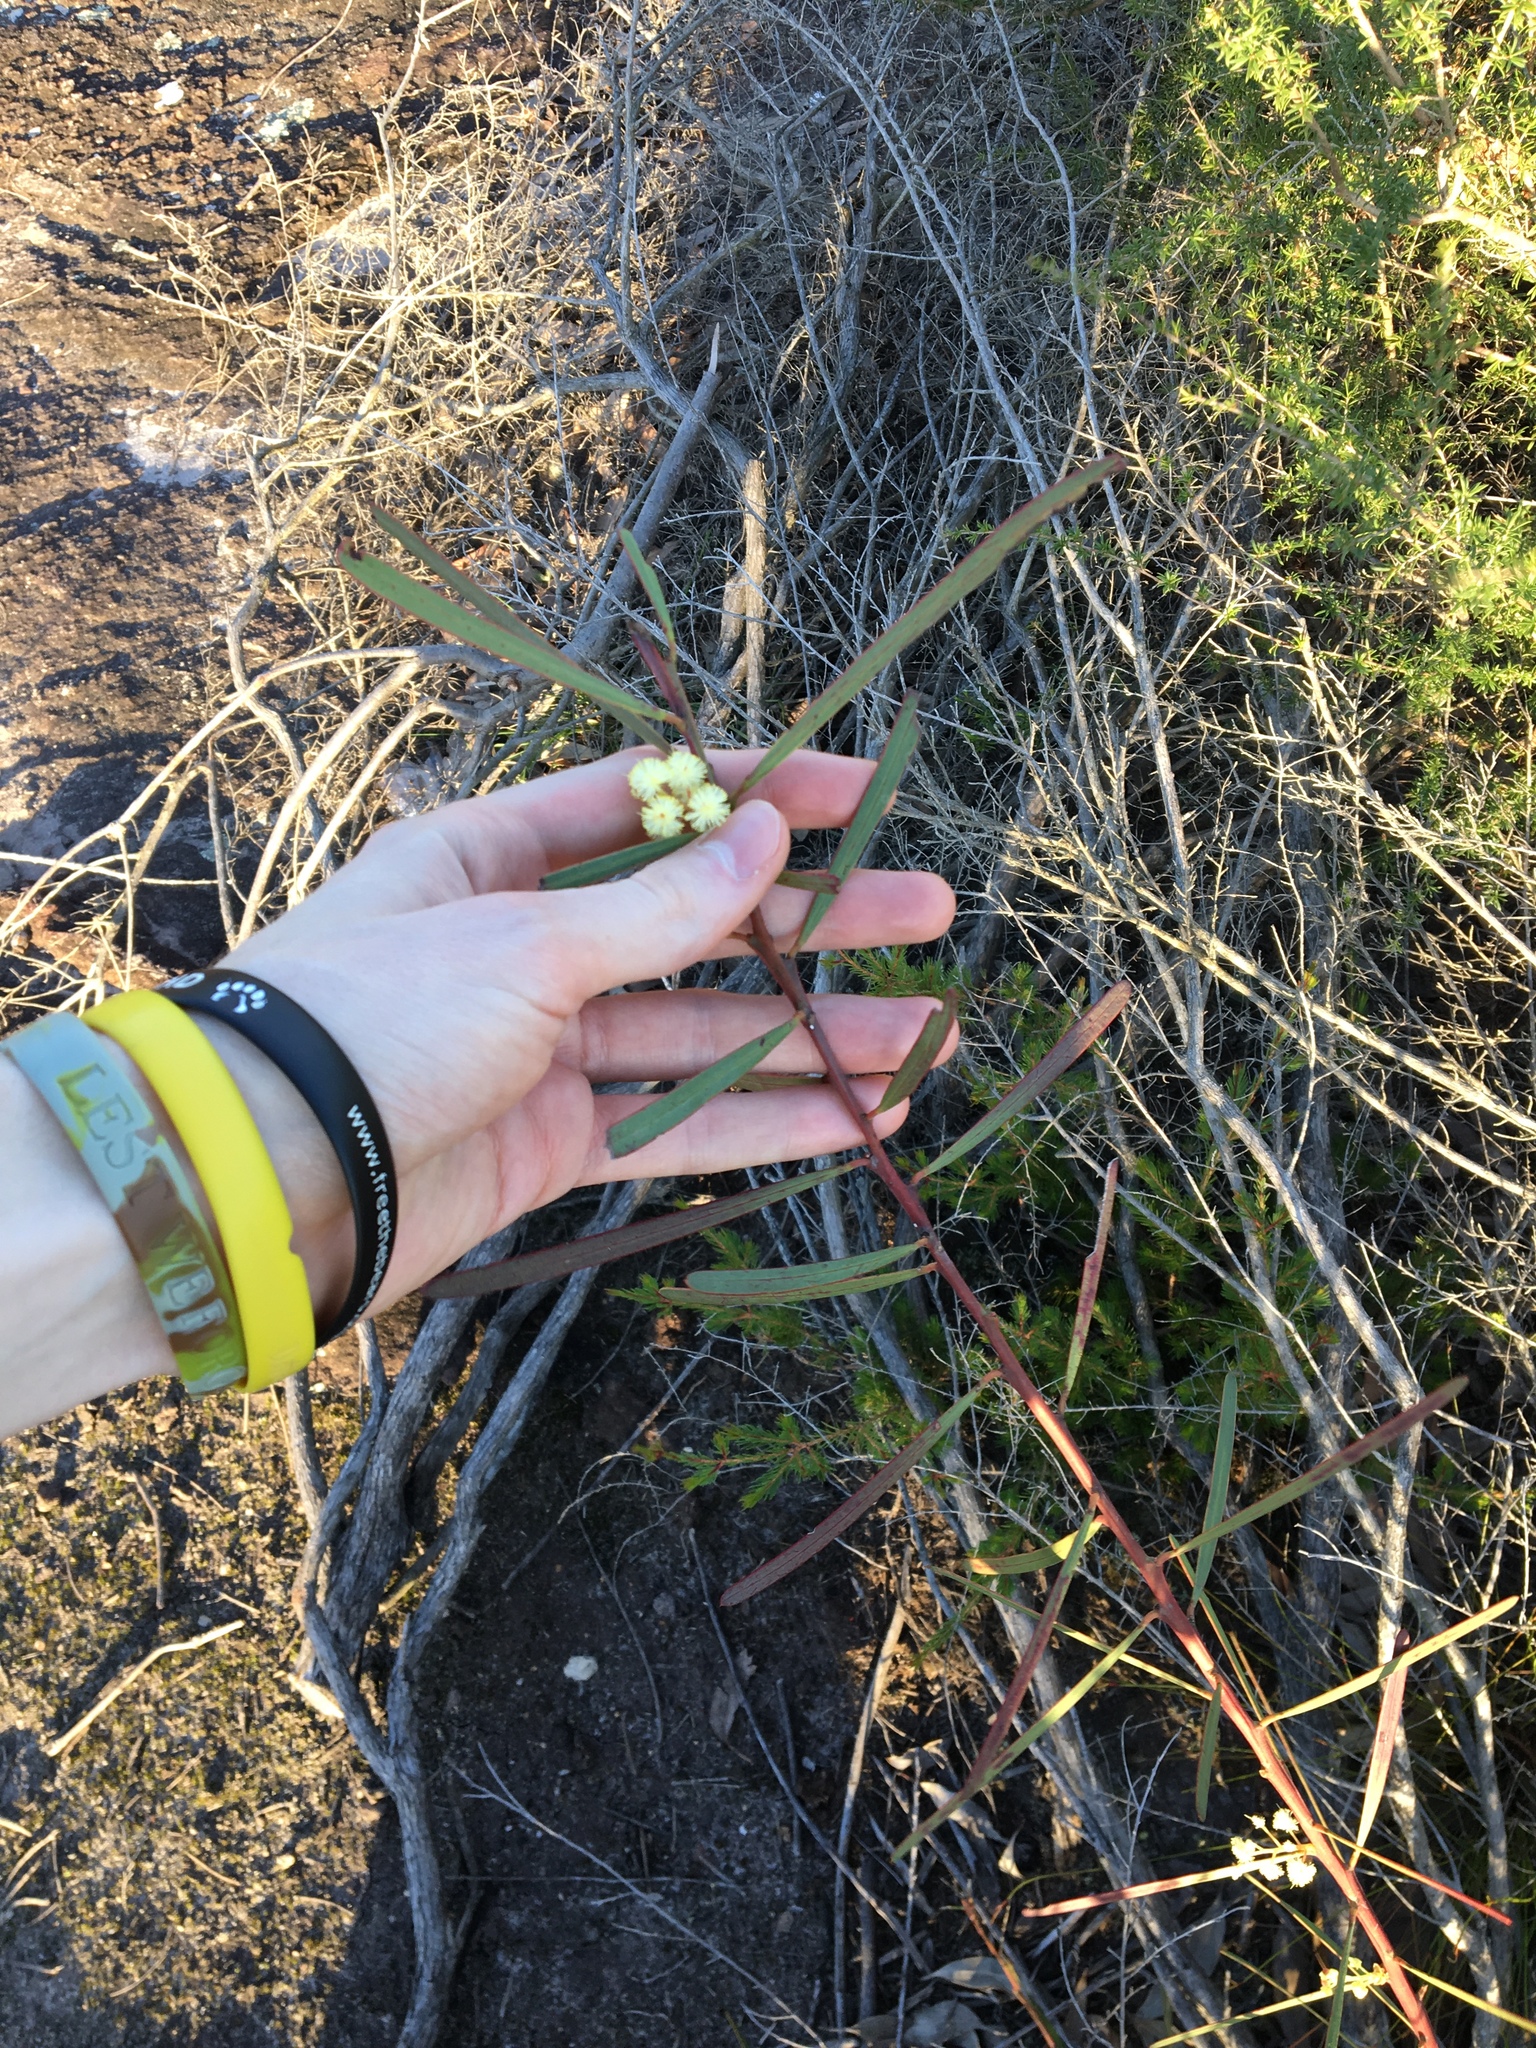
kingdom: Plantae
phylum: Tracheophyta
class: Magnoliopsida
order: Fabales
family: Fabaceae
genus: Acacia
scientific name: Acacia suaveolens
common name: Sweet acacia
